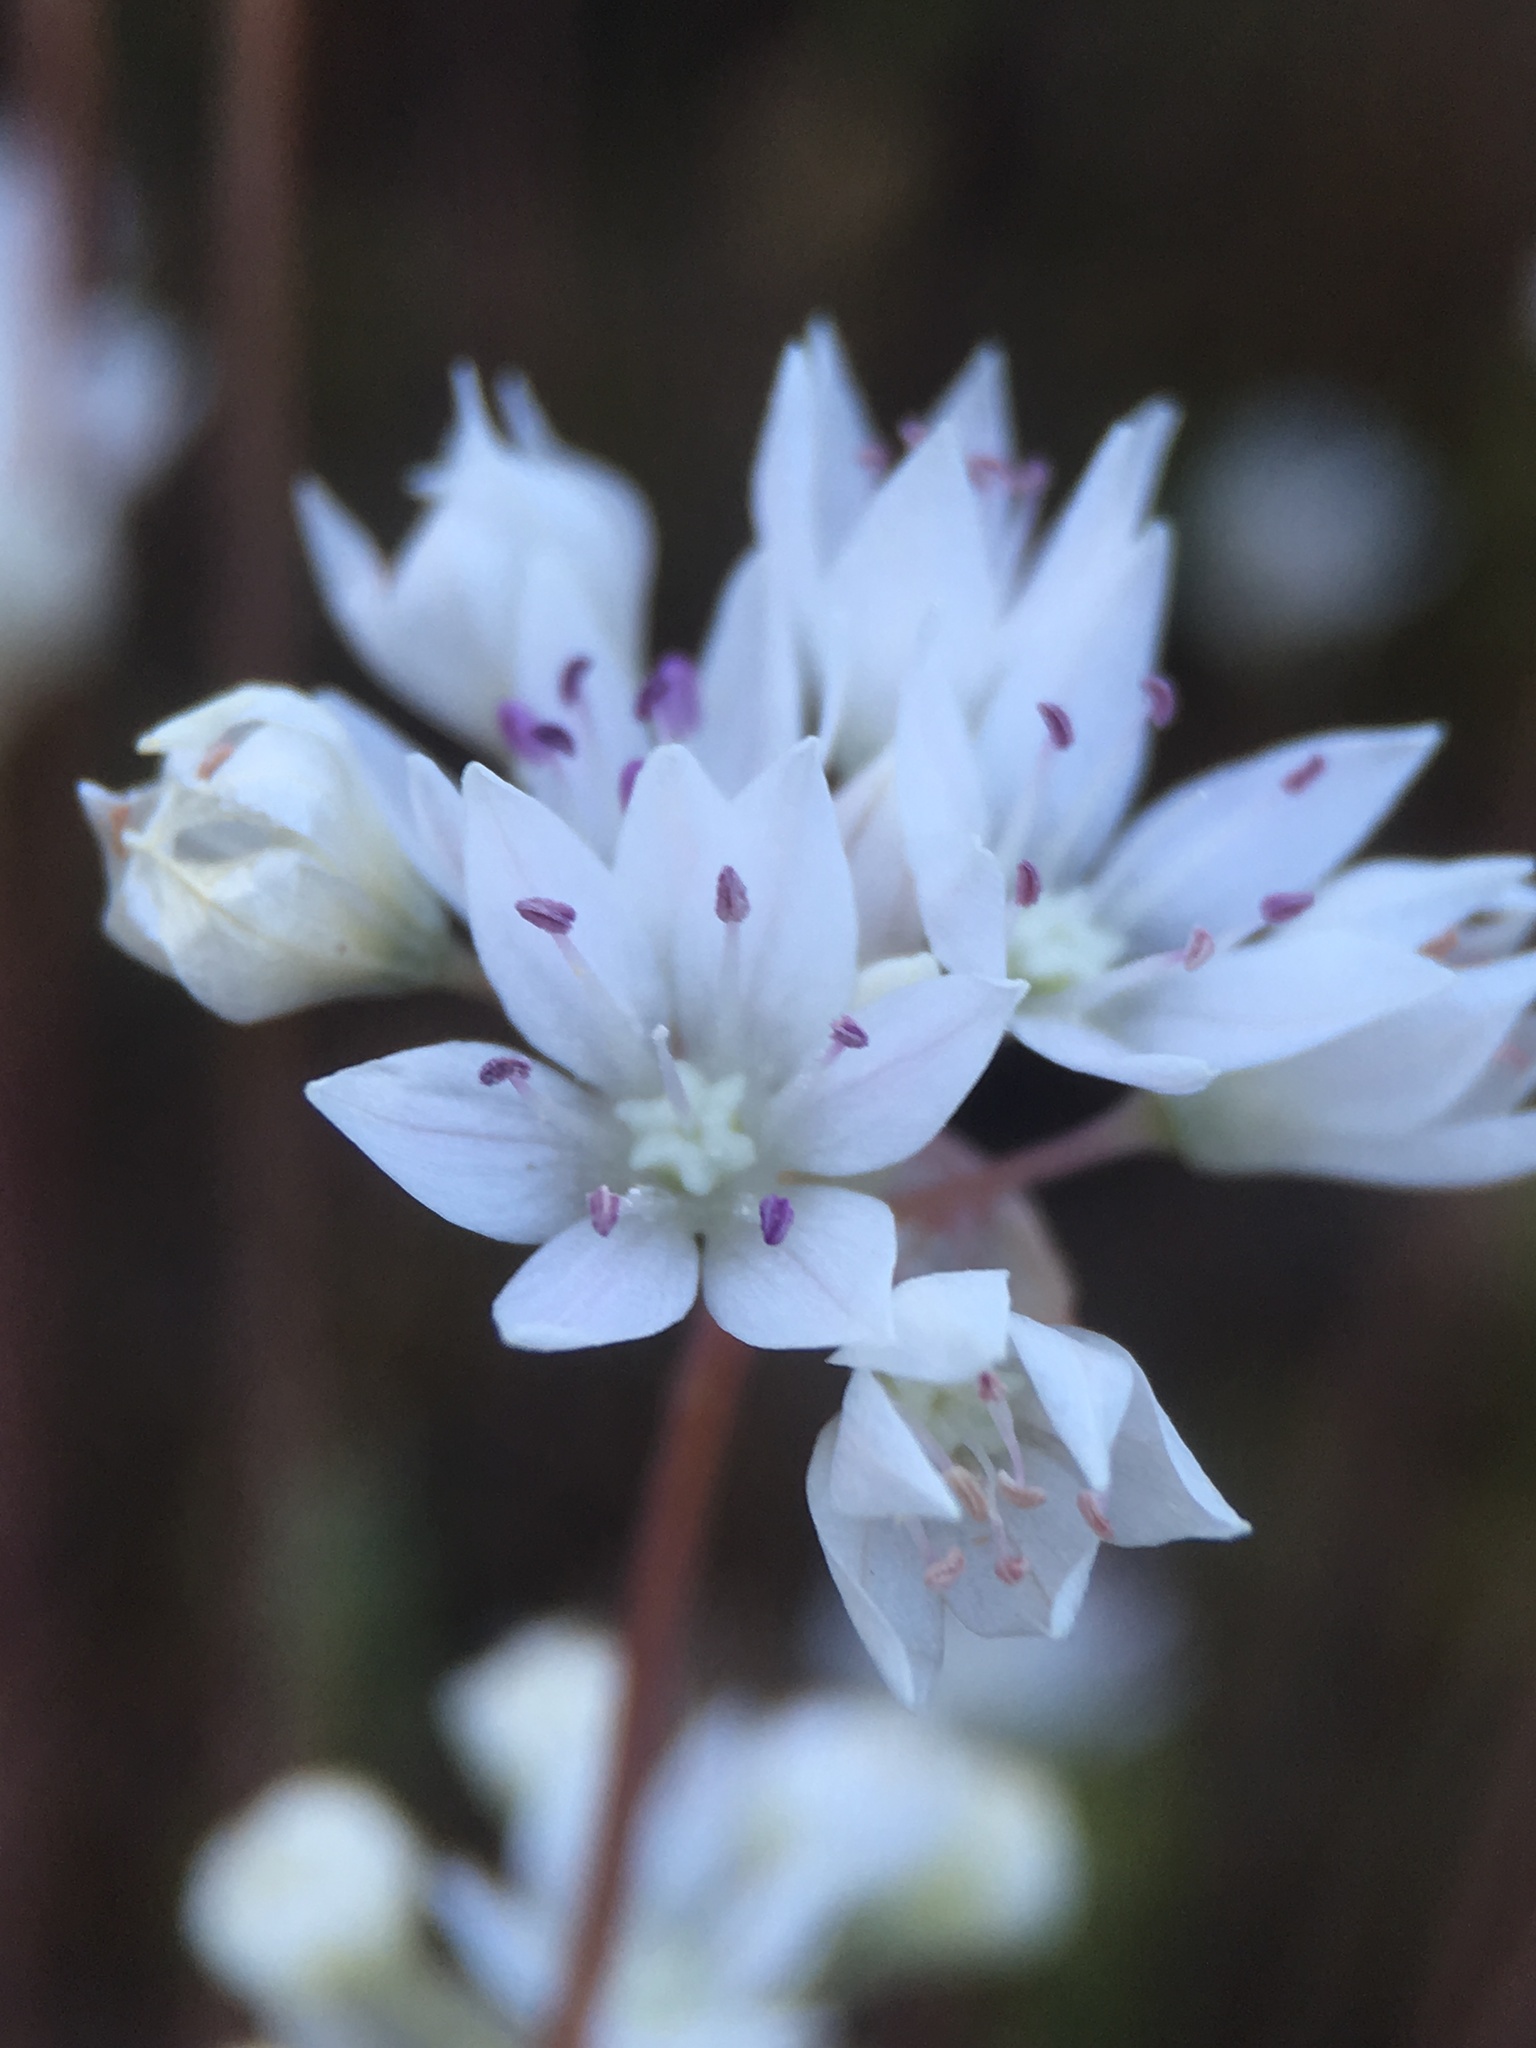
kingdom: Plantae
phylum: Tracheophyta
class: Liliopsida
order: Asparagales
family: Amaryllidaceae
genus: Allium
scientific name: Allium amplectens
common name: Narrow-leaved onion
